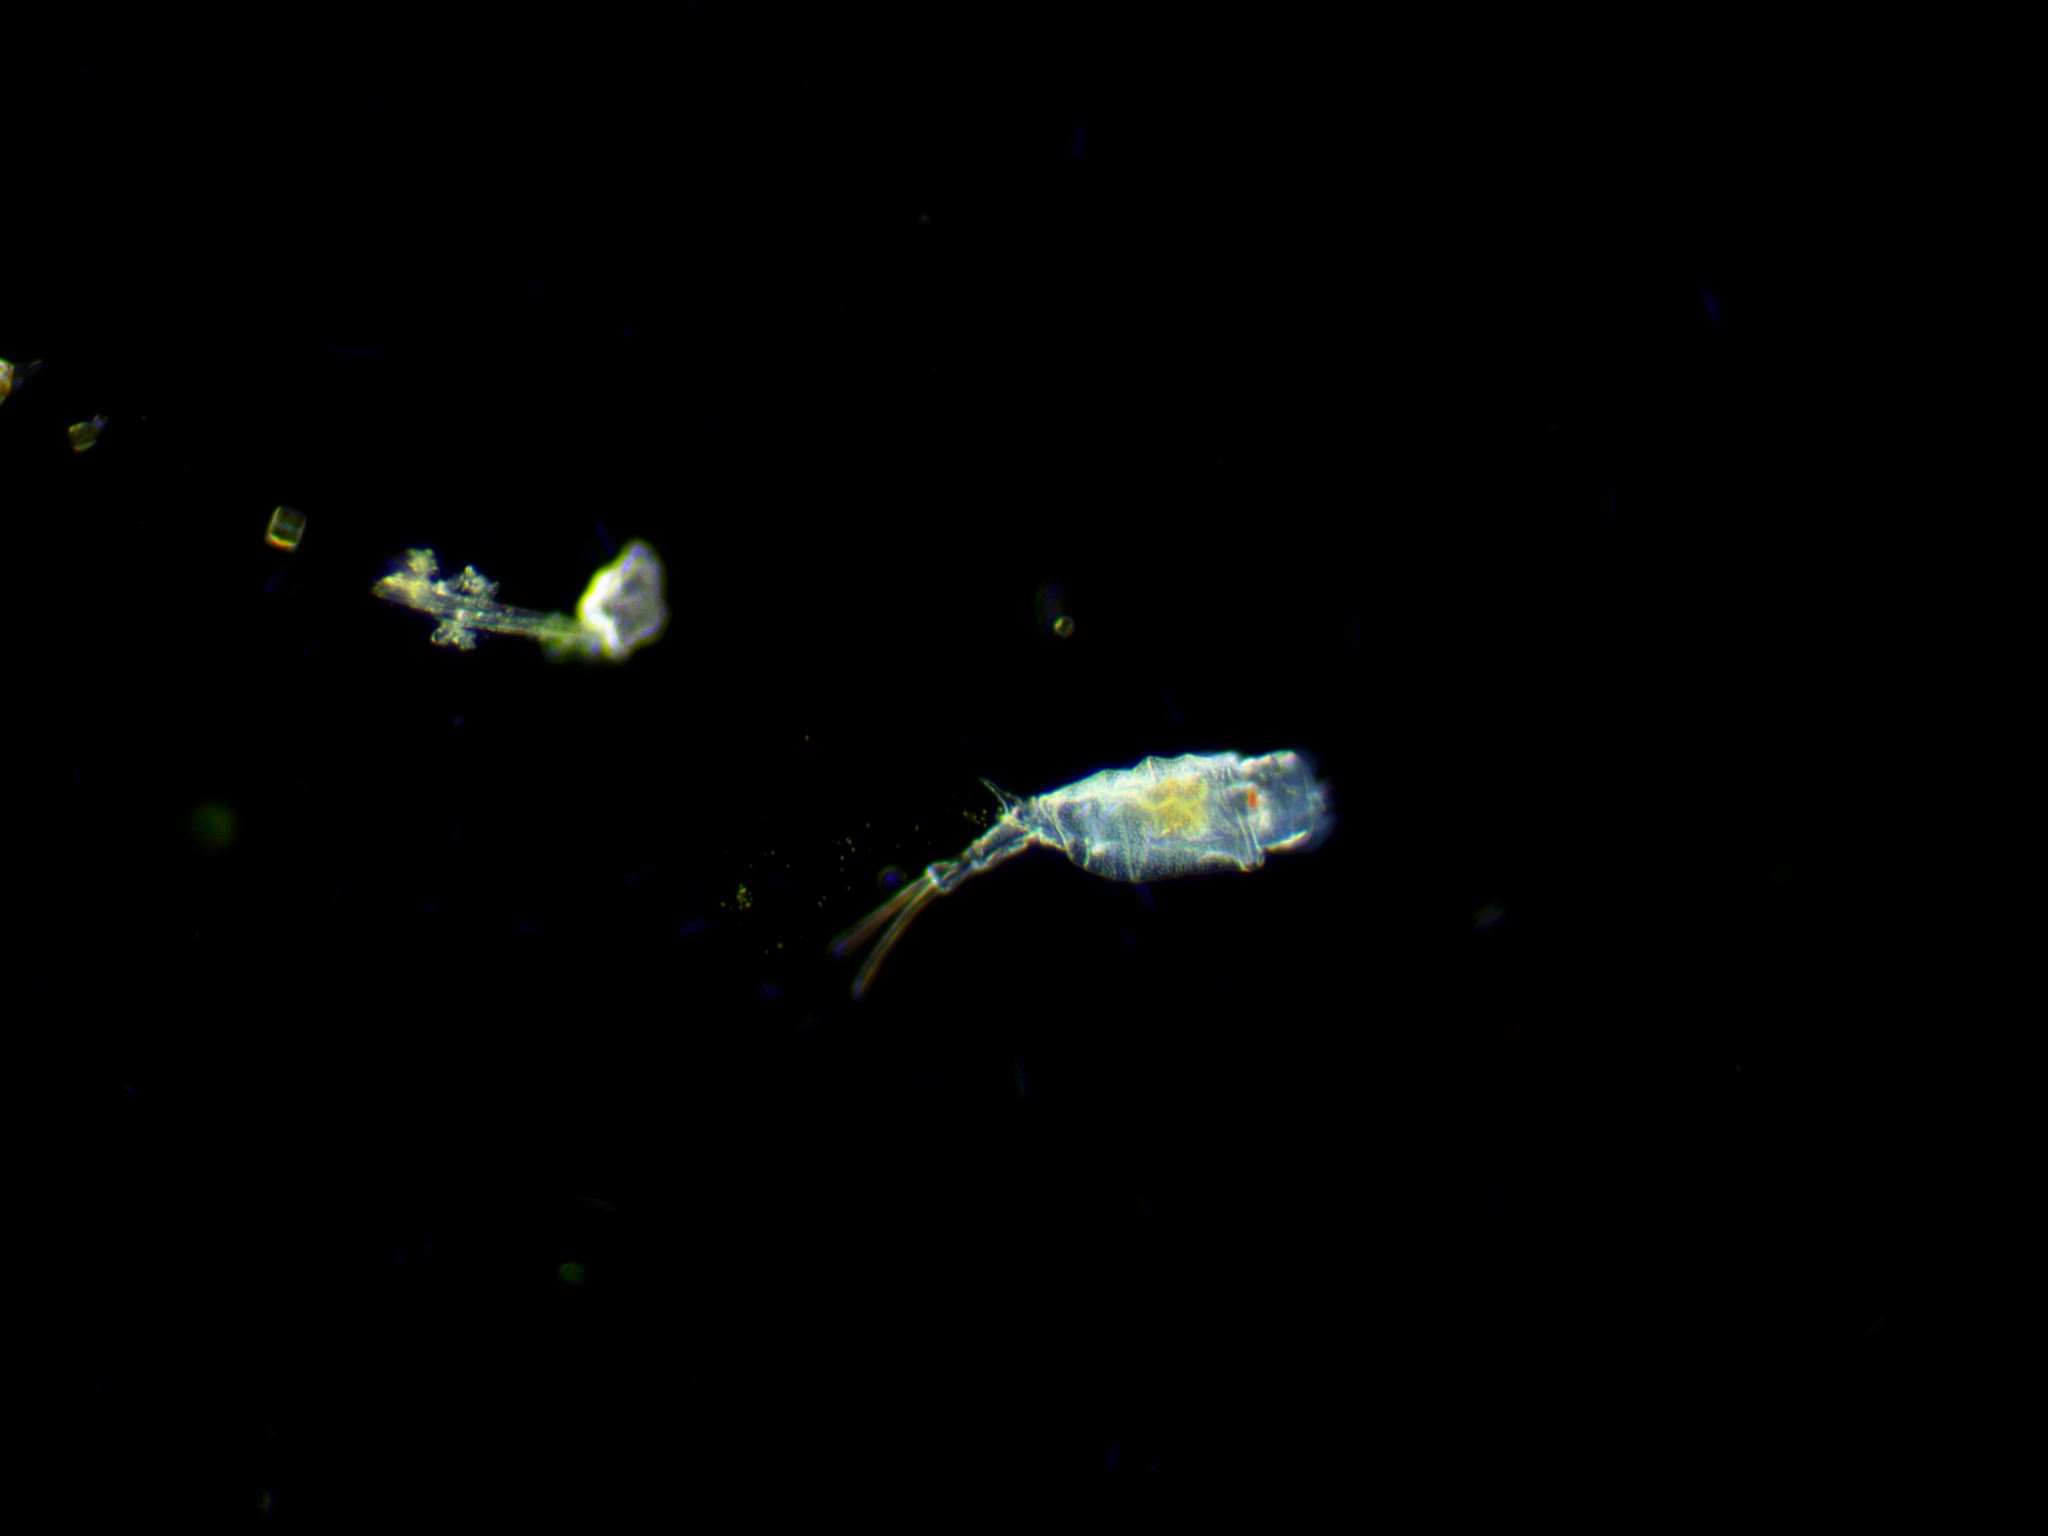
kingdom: Animalia
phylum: Rotifera
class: Eurotatoria
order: Ploima
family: Trichotriidae
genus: Trichotria
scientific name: Trichotria pocillum
